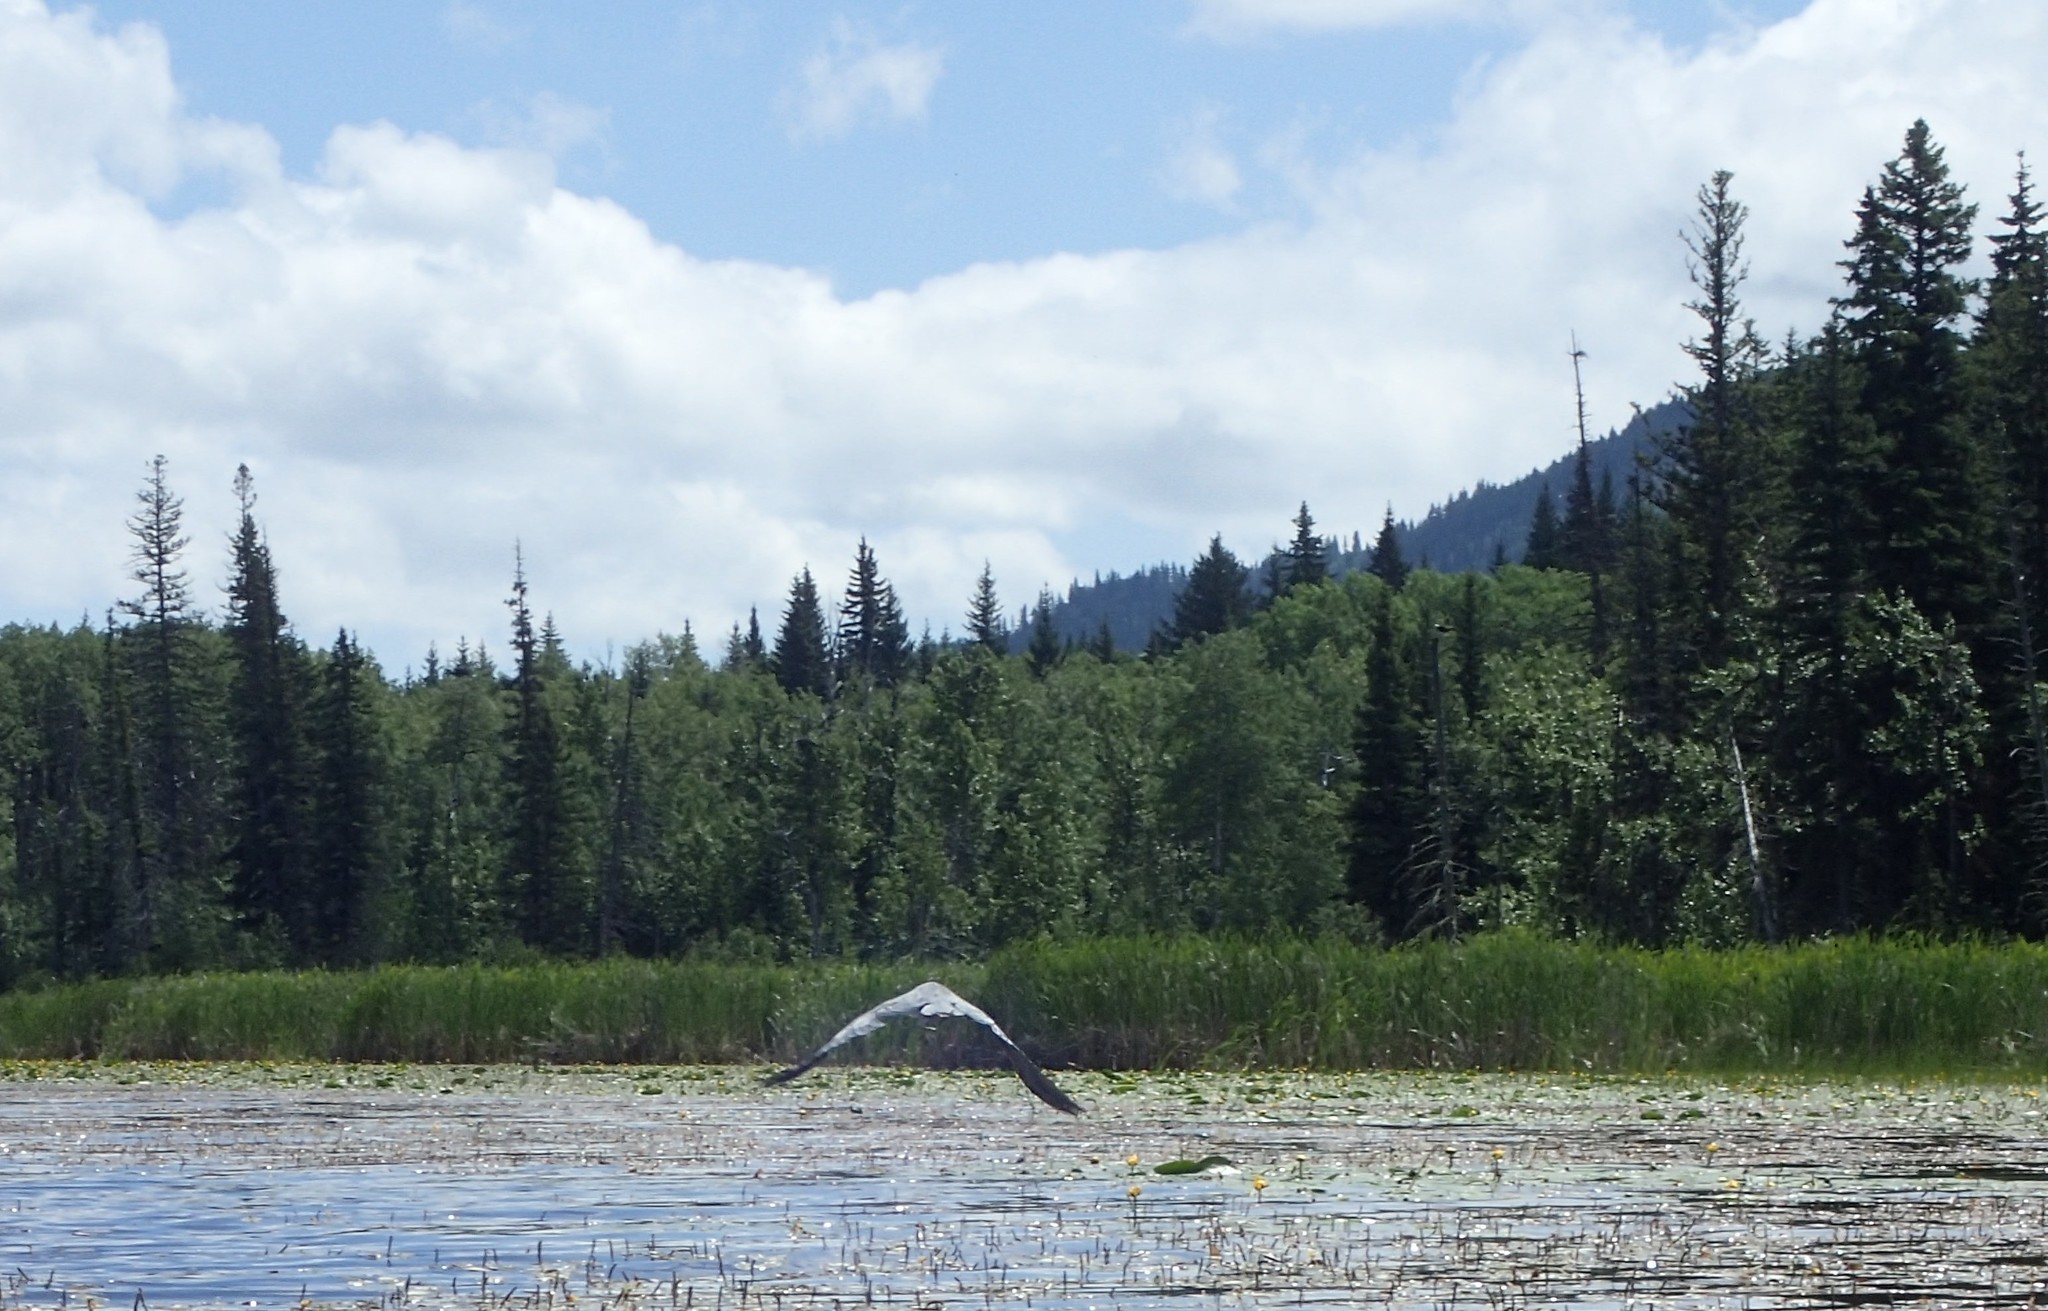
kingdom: Animalia
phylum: Chordata
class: Aves
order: Pelecaniformes
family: Ardeidae
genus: Ardea
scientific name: Ardea herodias
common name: Great blue heron
